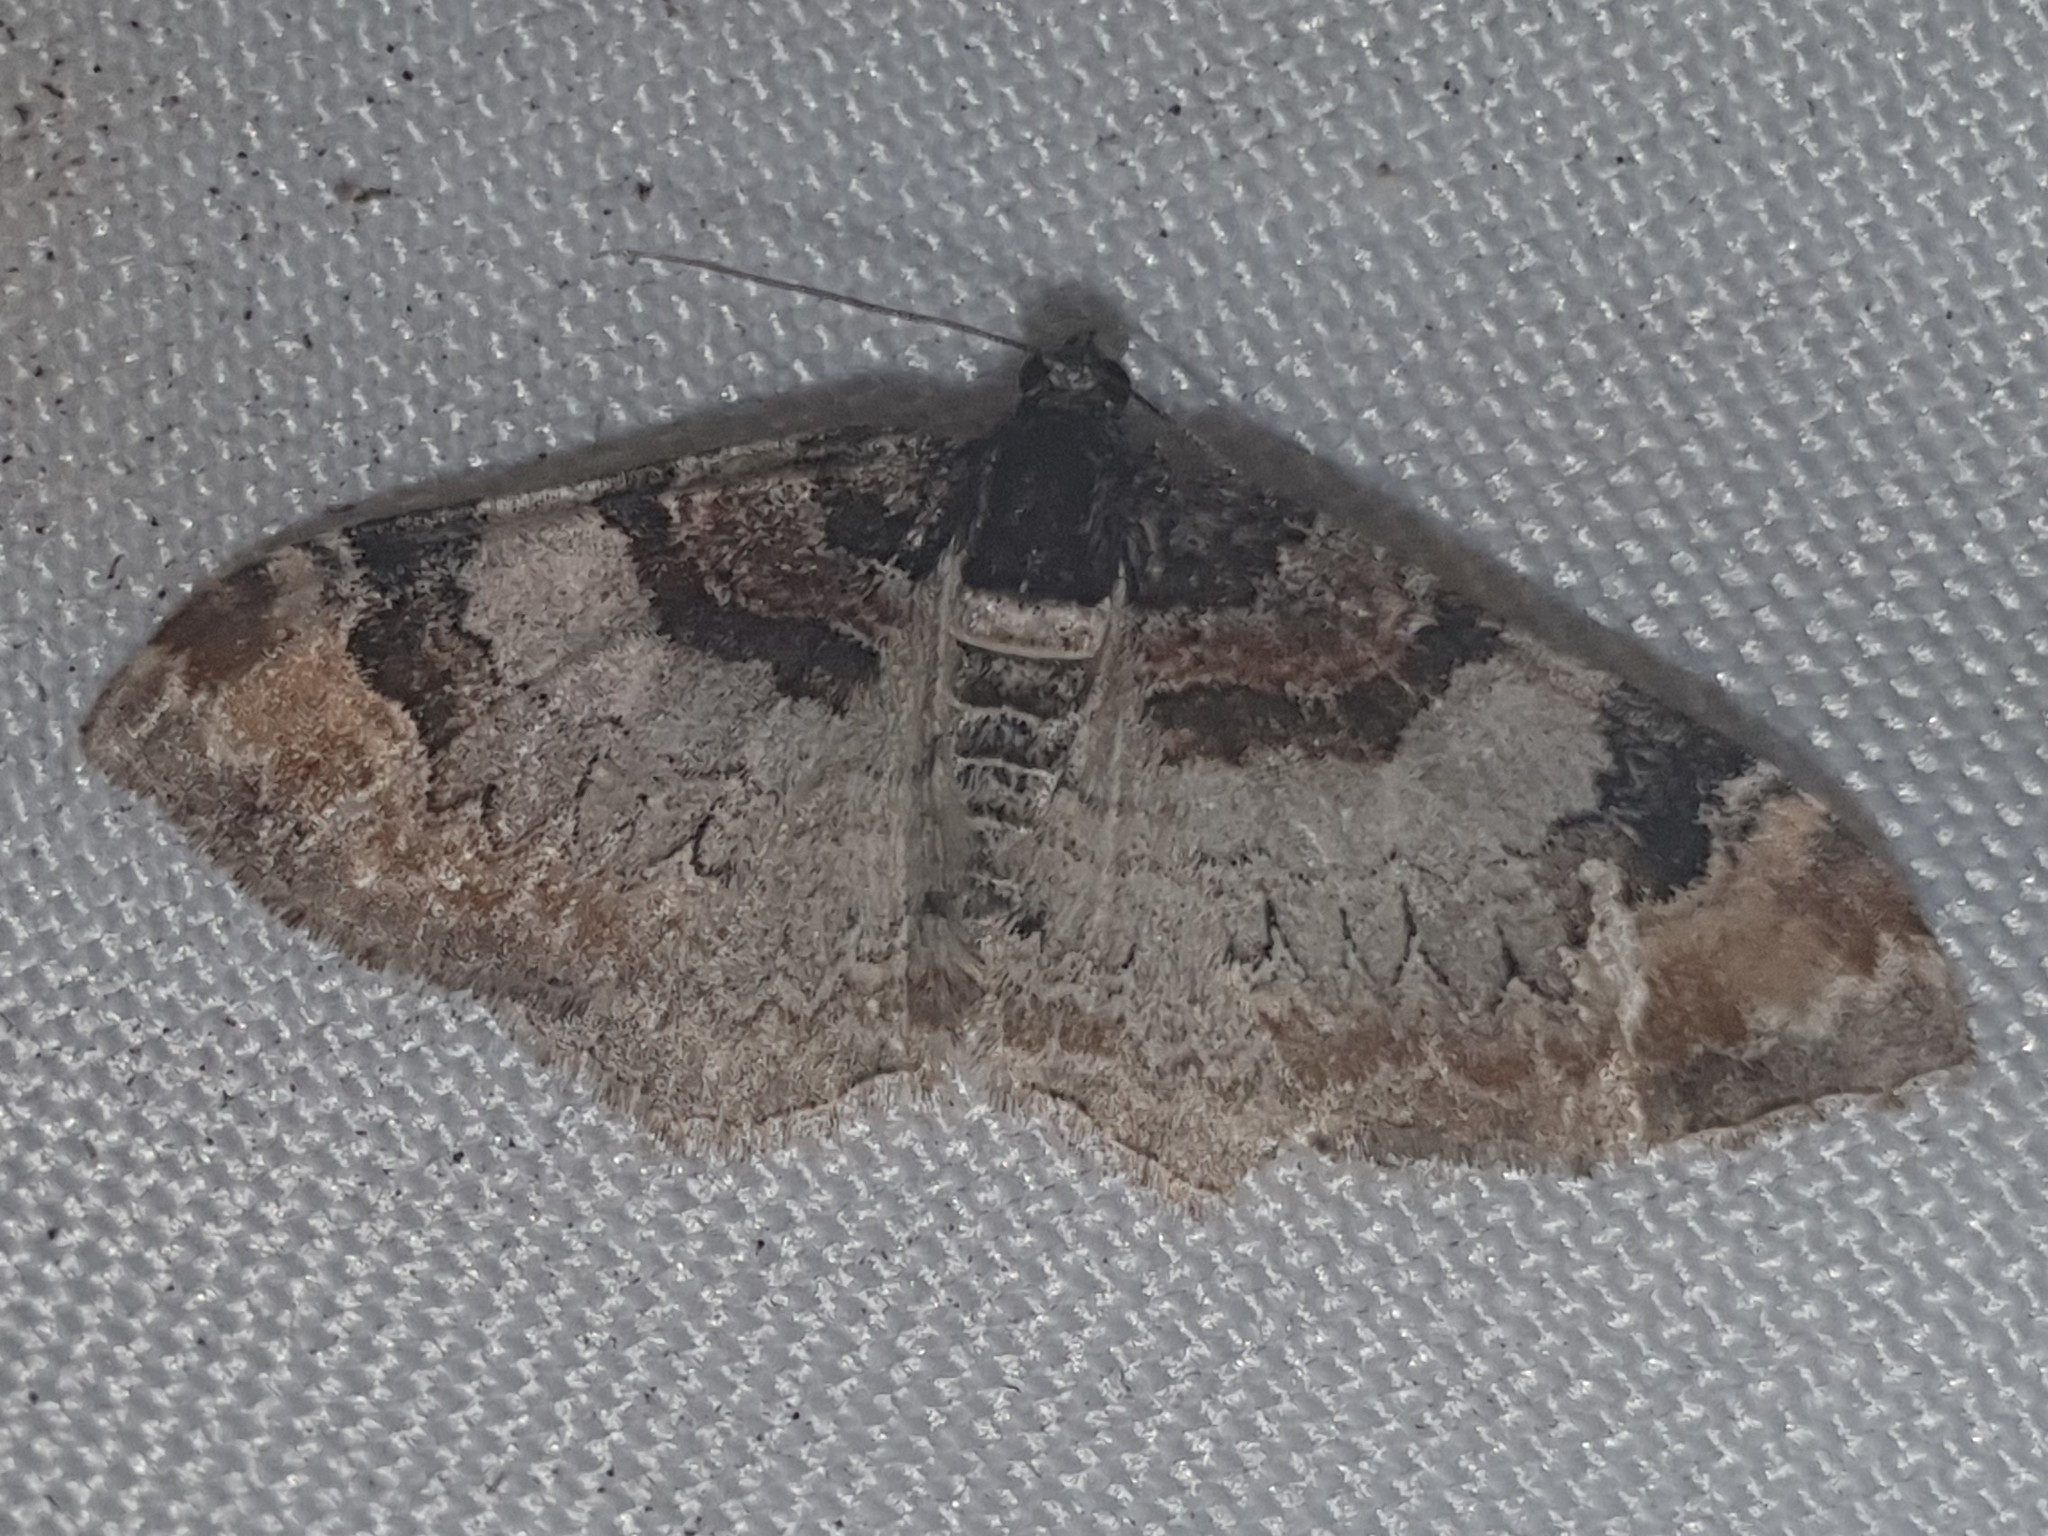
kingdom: Animalia
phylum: Arthropoda
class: Insecta
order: Lepidoptera
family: Geometridae
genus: Catarhoe
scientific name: Catarhoe cuculata
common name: Royal mantle
